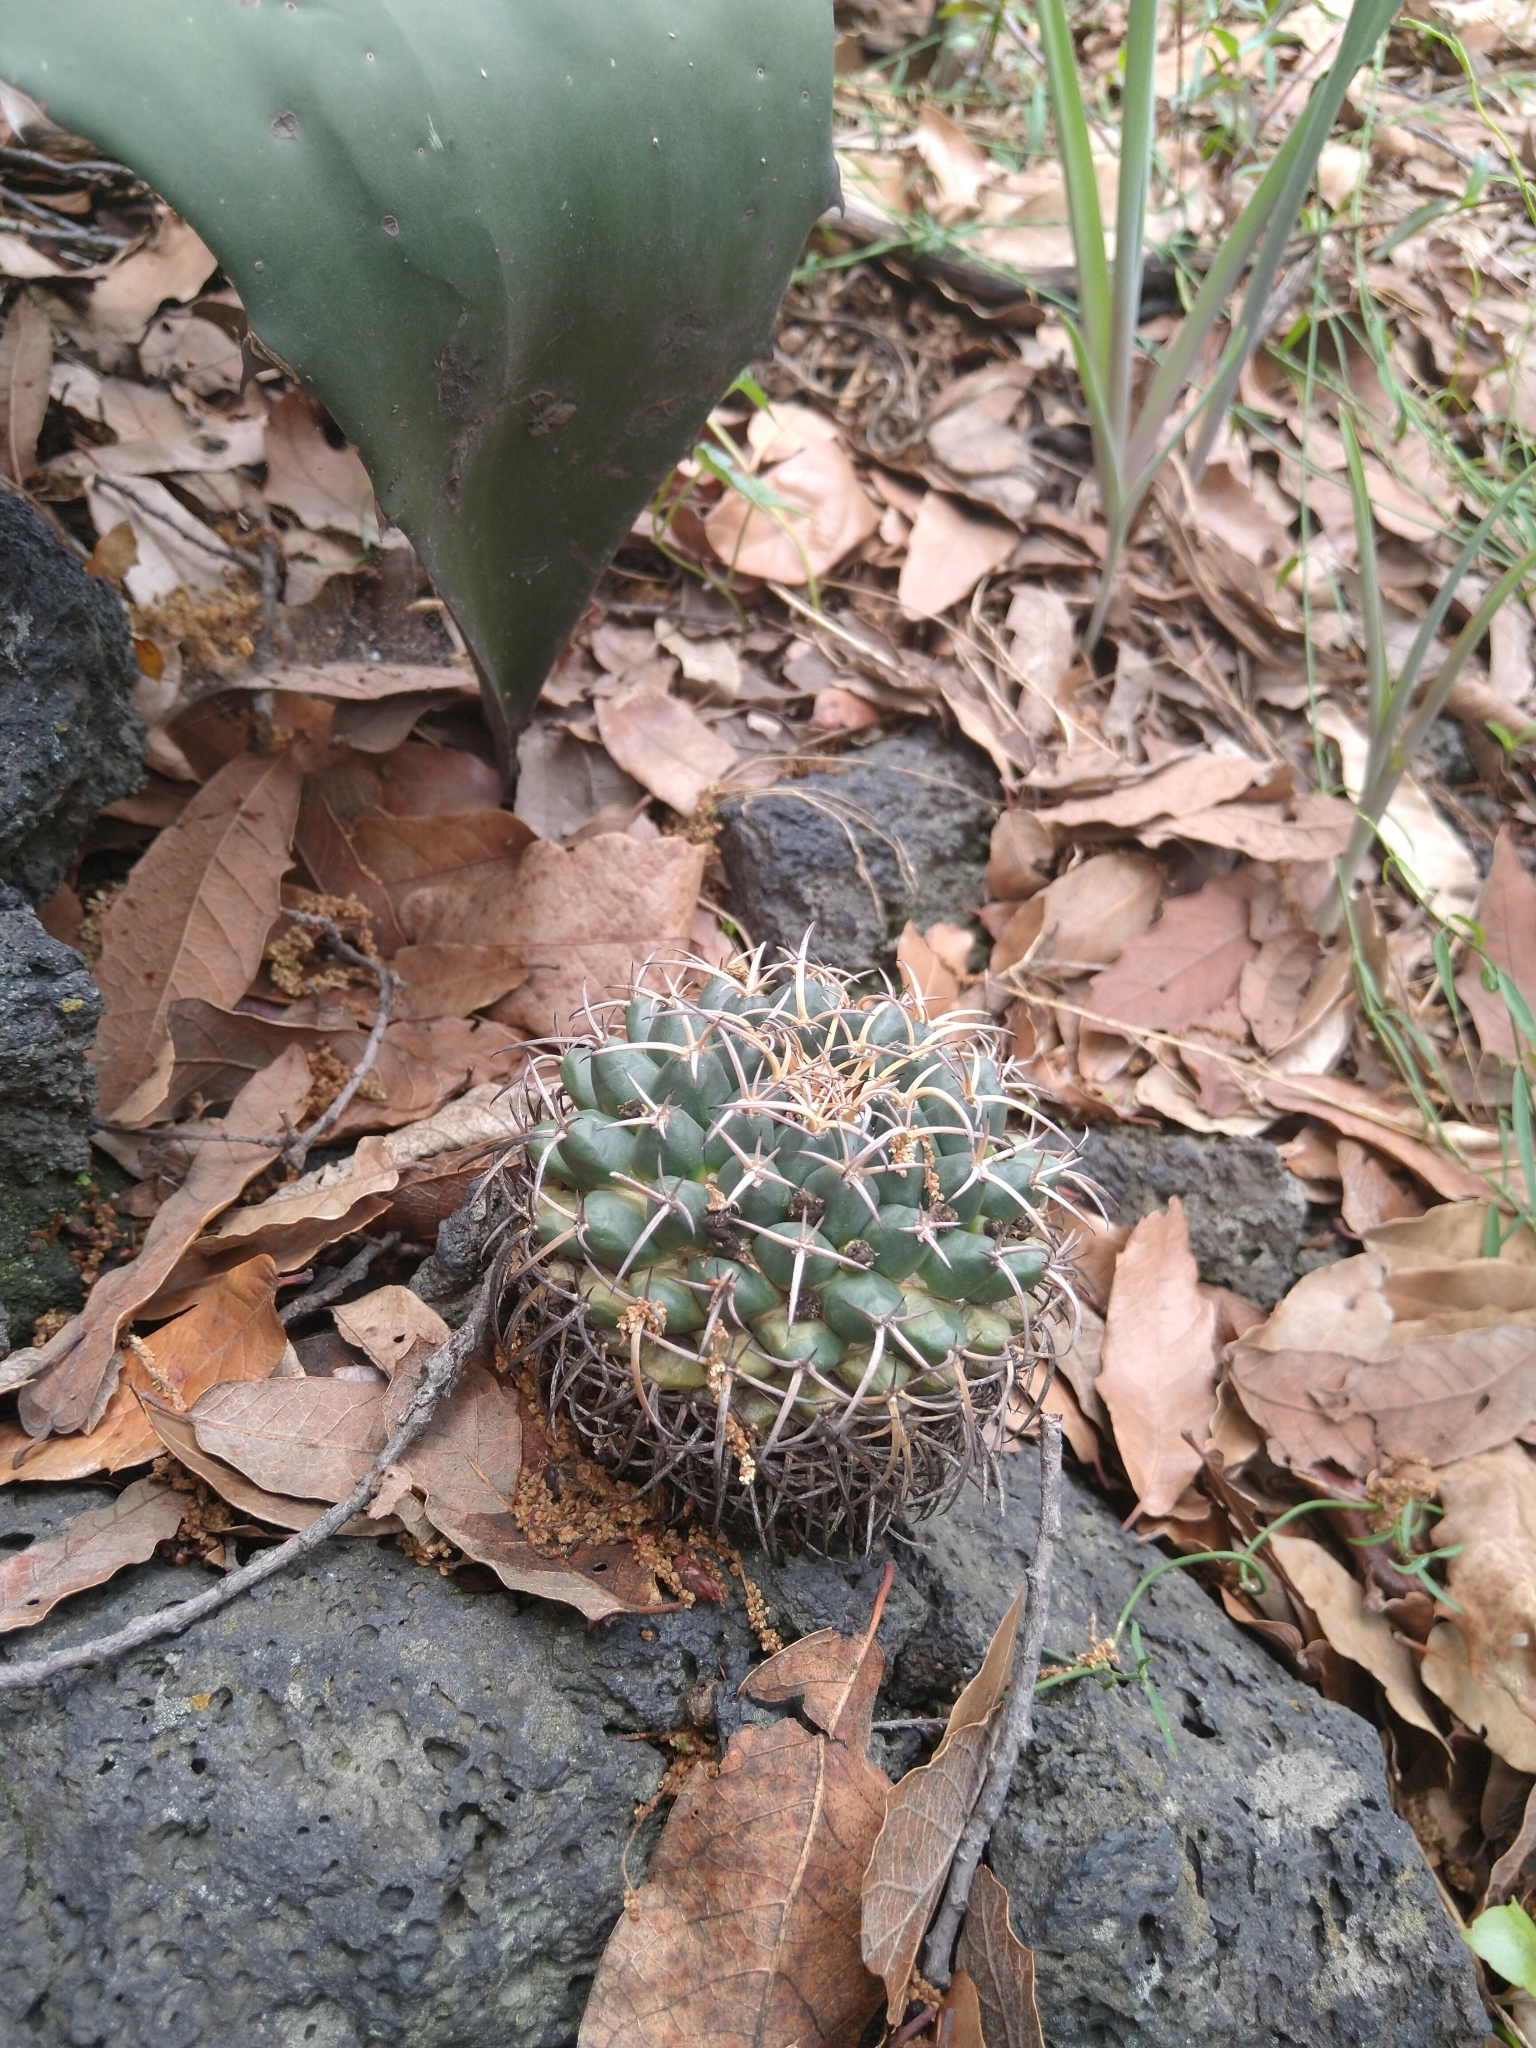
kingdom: Plantae
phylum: Tracheophyta
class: Magnoliopsida
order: Caryophyllales
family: Cactaceae
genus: Mammillaria
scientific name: Mammillaria magnimamma
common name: Mexican pincushion
